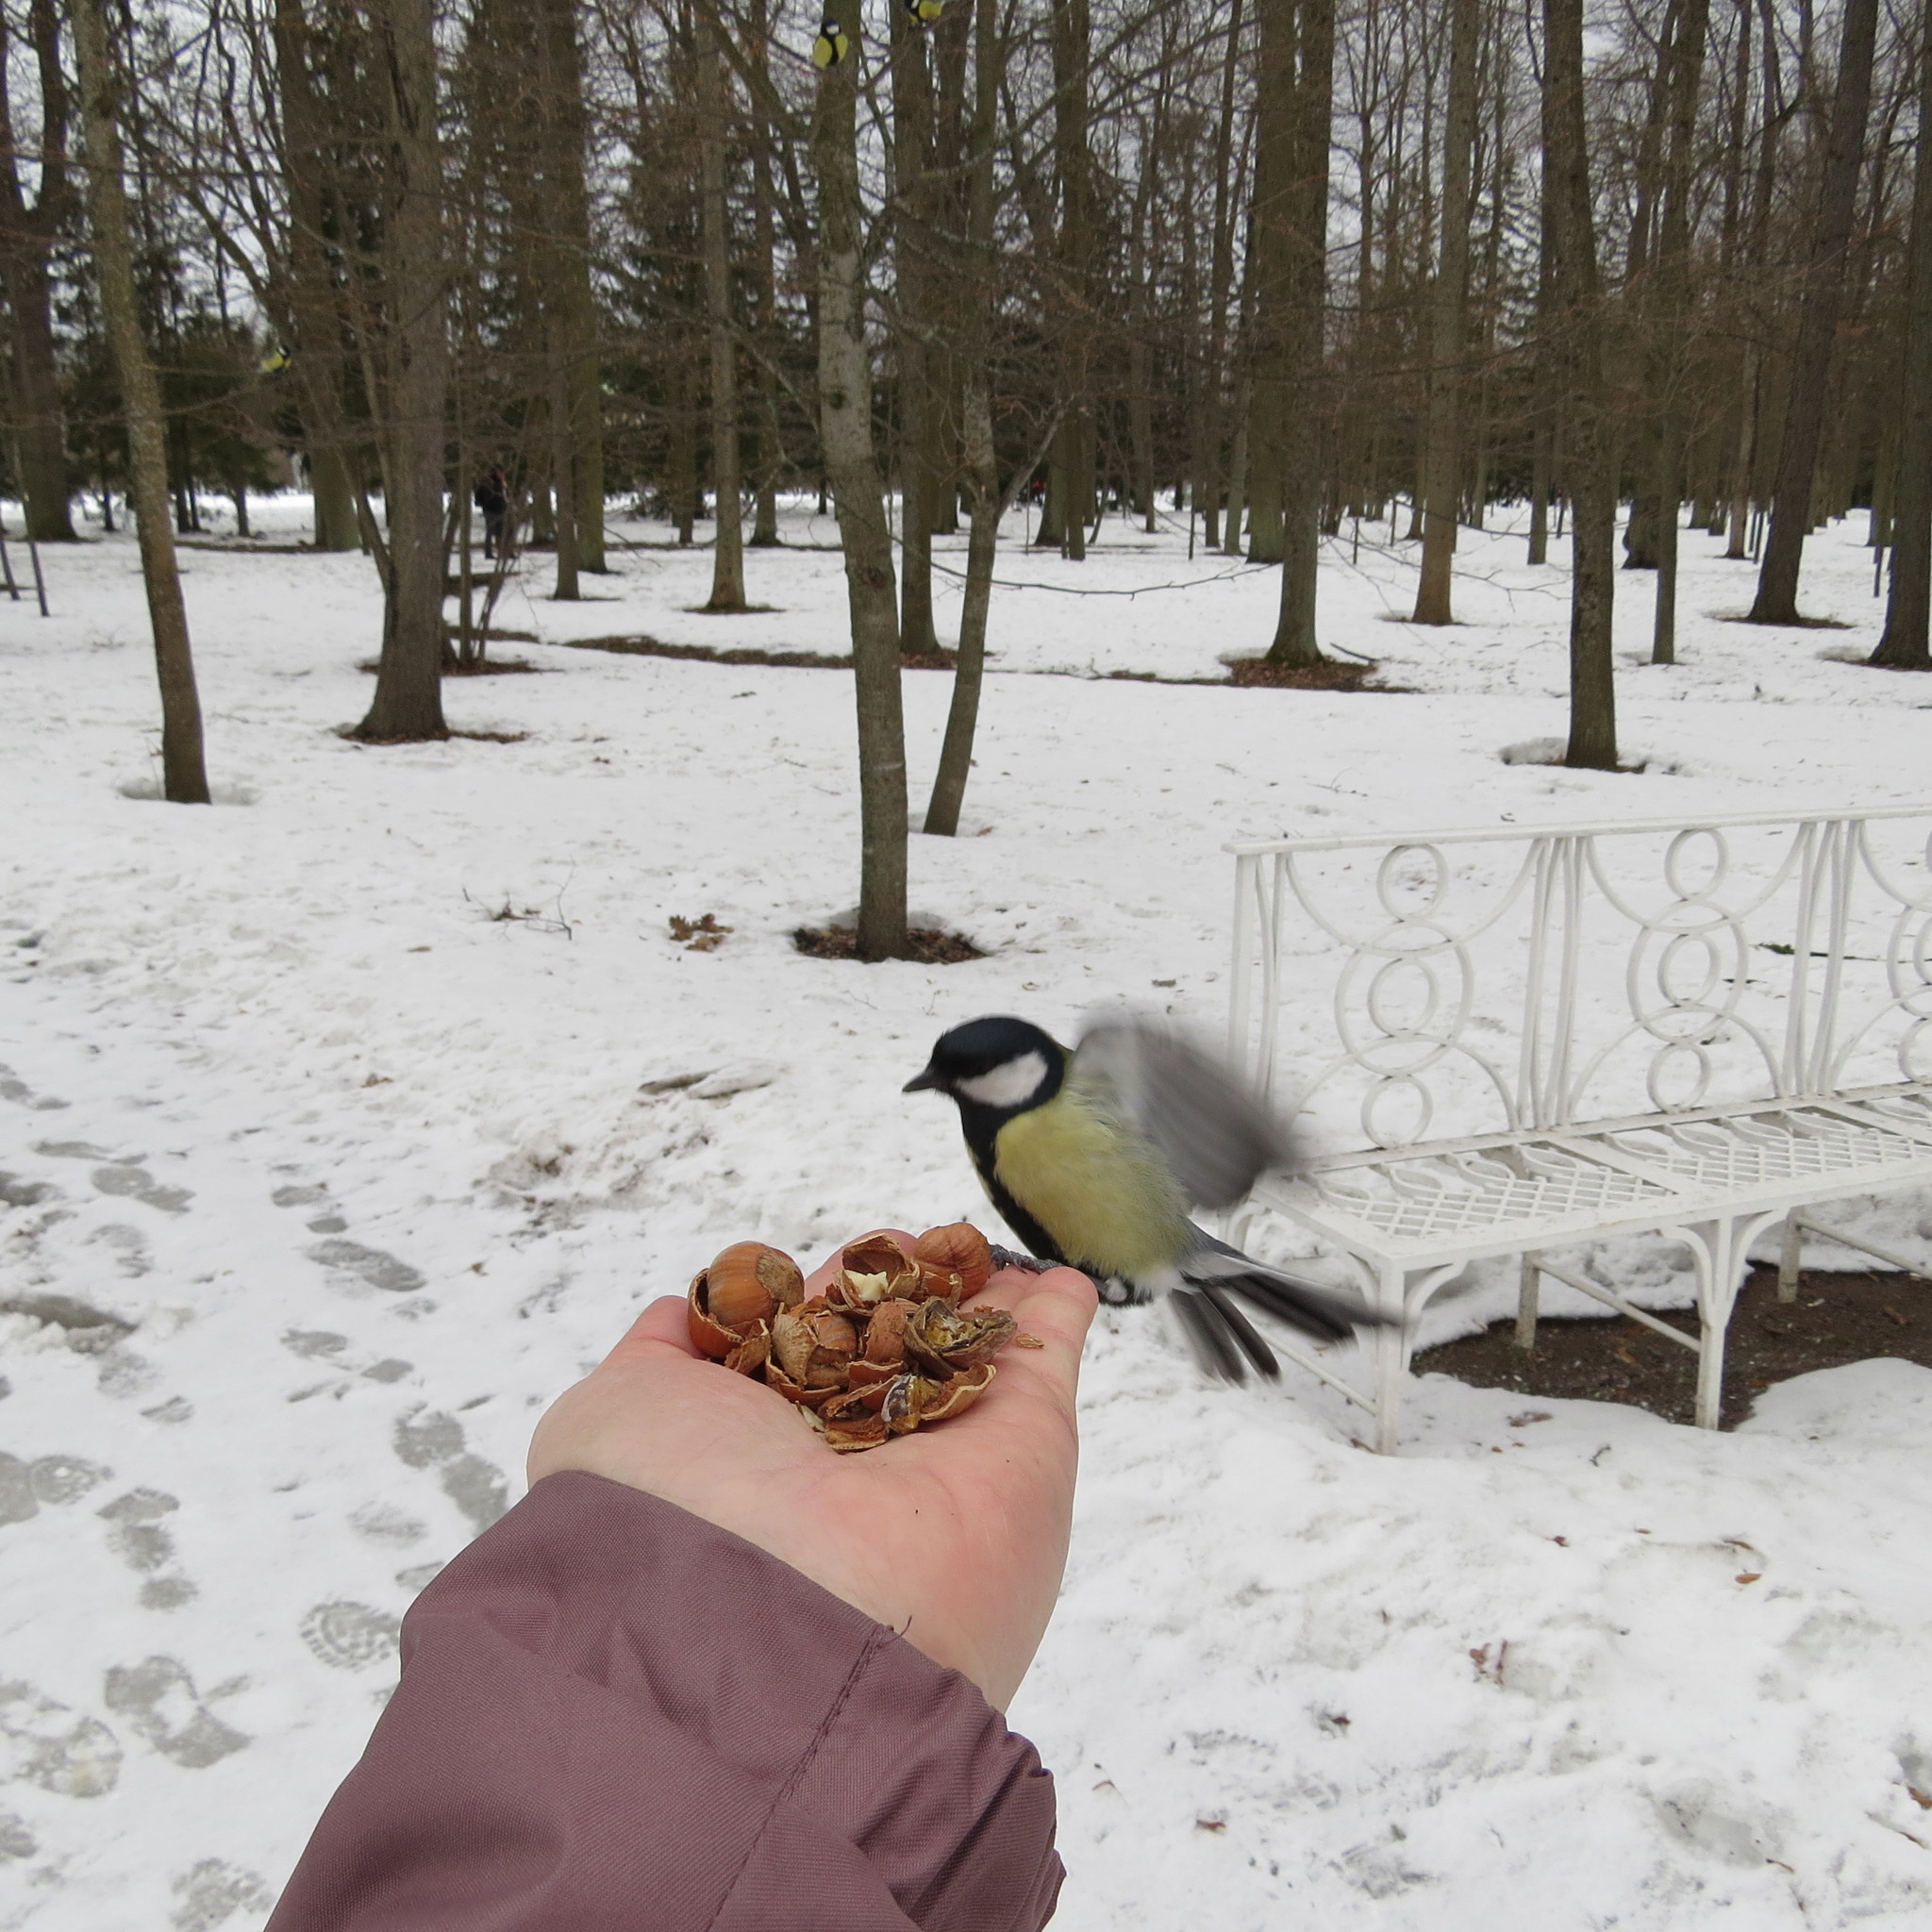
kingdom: Animalia
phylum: Chordata
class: Aves
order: Passeriformes
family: Paridae
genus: Parus
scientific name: Parus major
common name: Great tit
